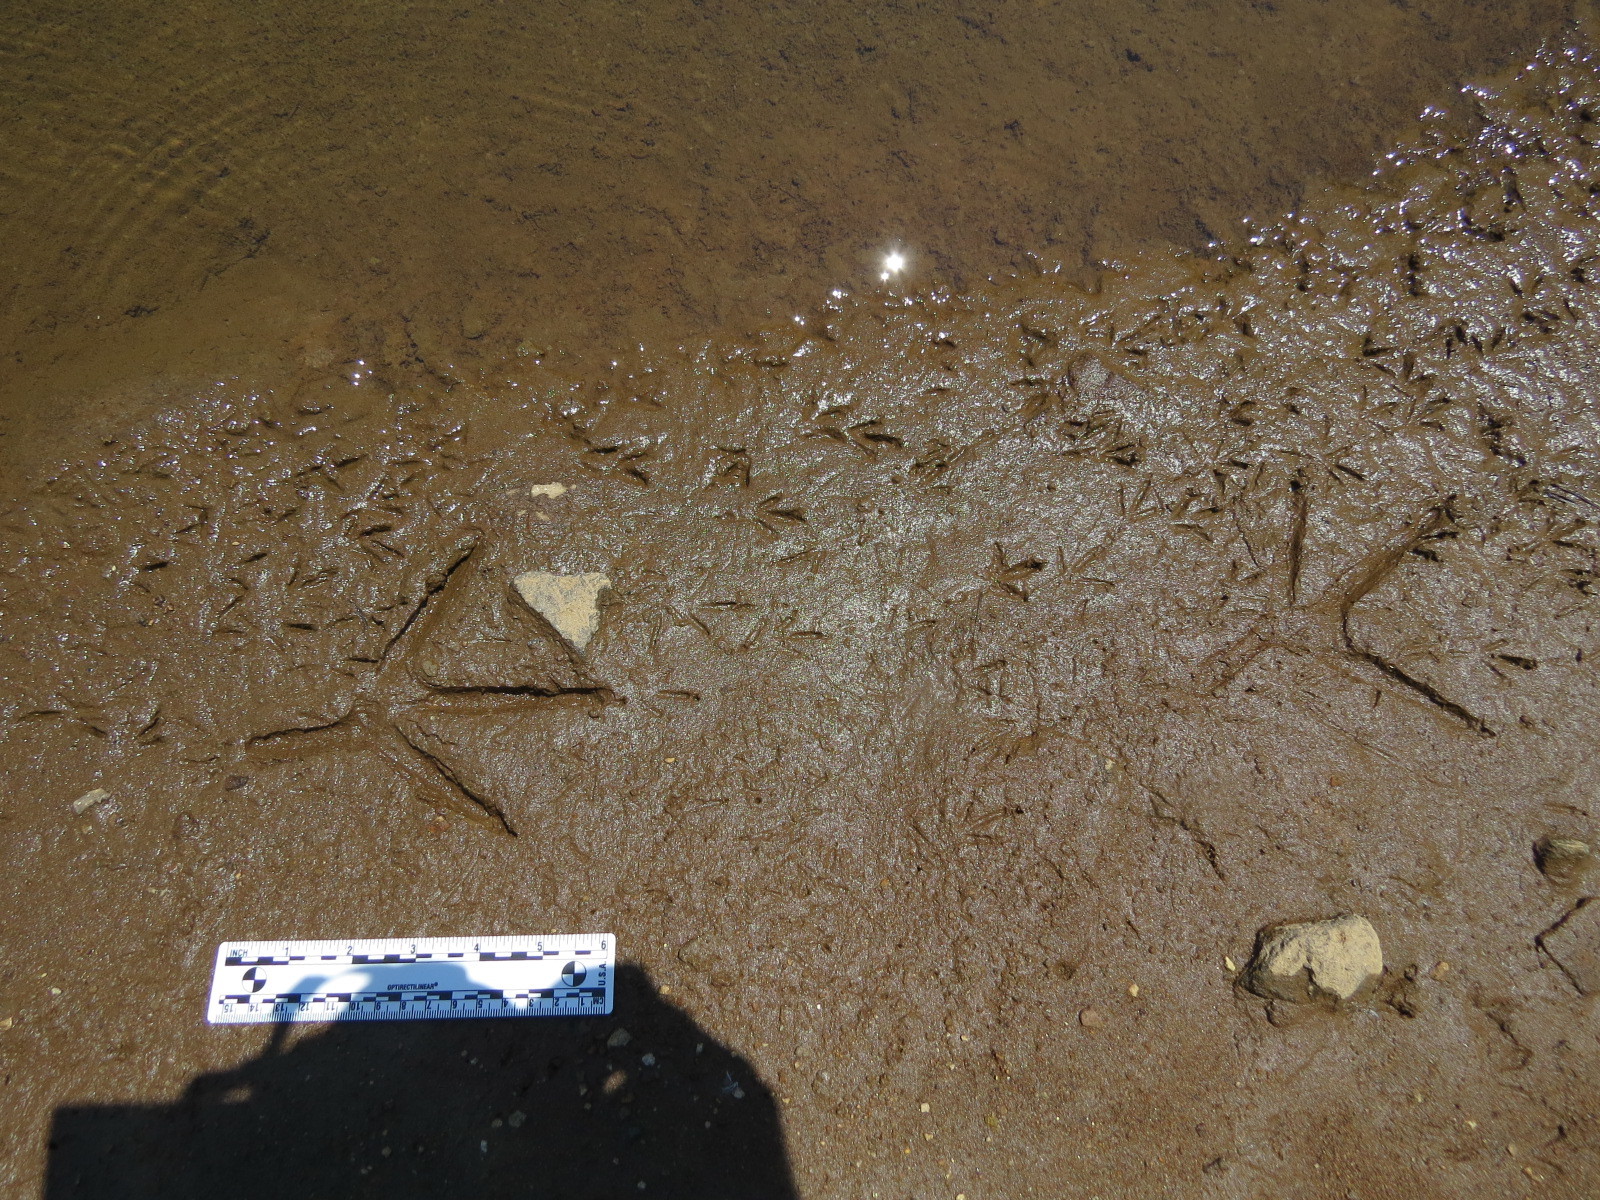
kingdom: Animalia
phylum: Chordata
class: Aves
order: Pelecaniformes
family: Ardeidae
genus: Ardea
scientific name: Ardea herodias
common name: Great blue heron
